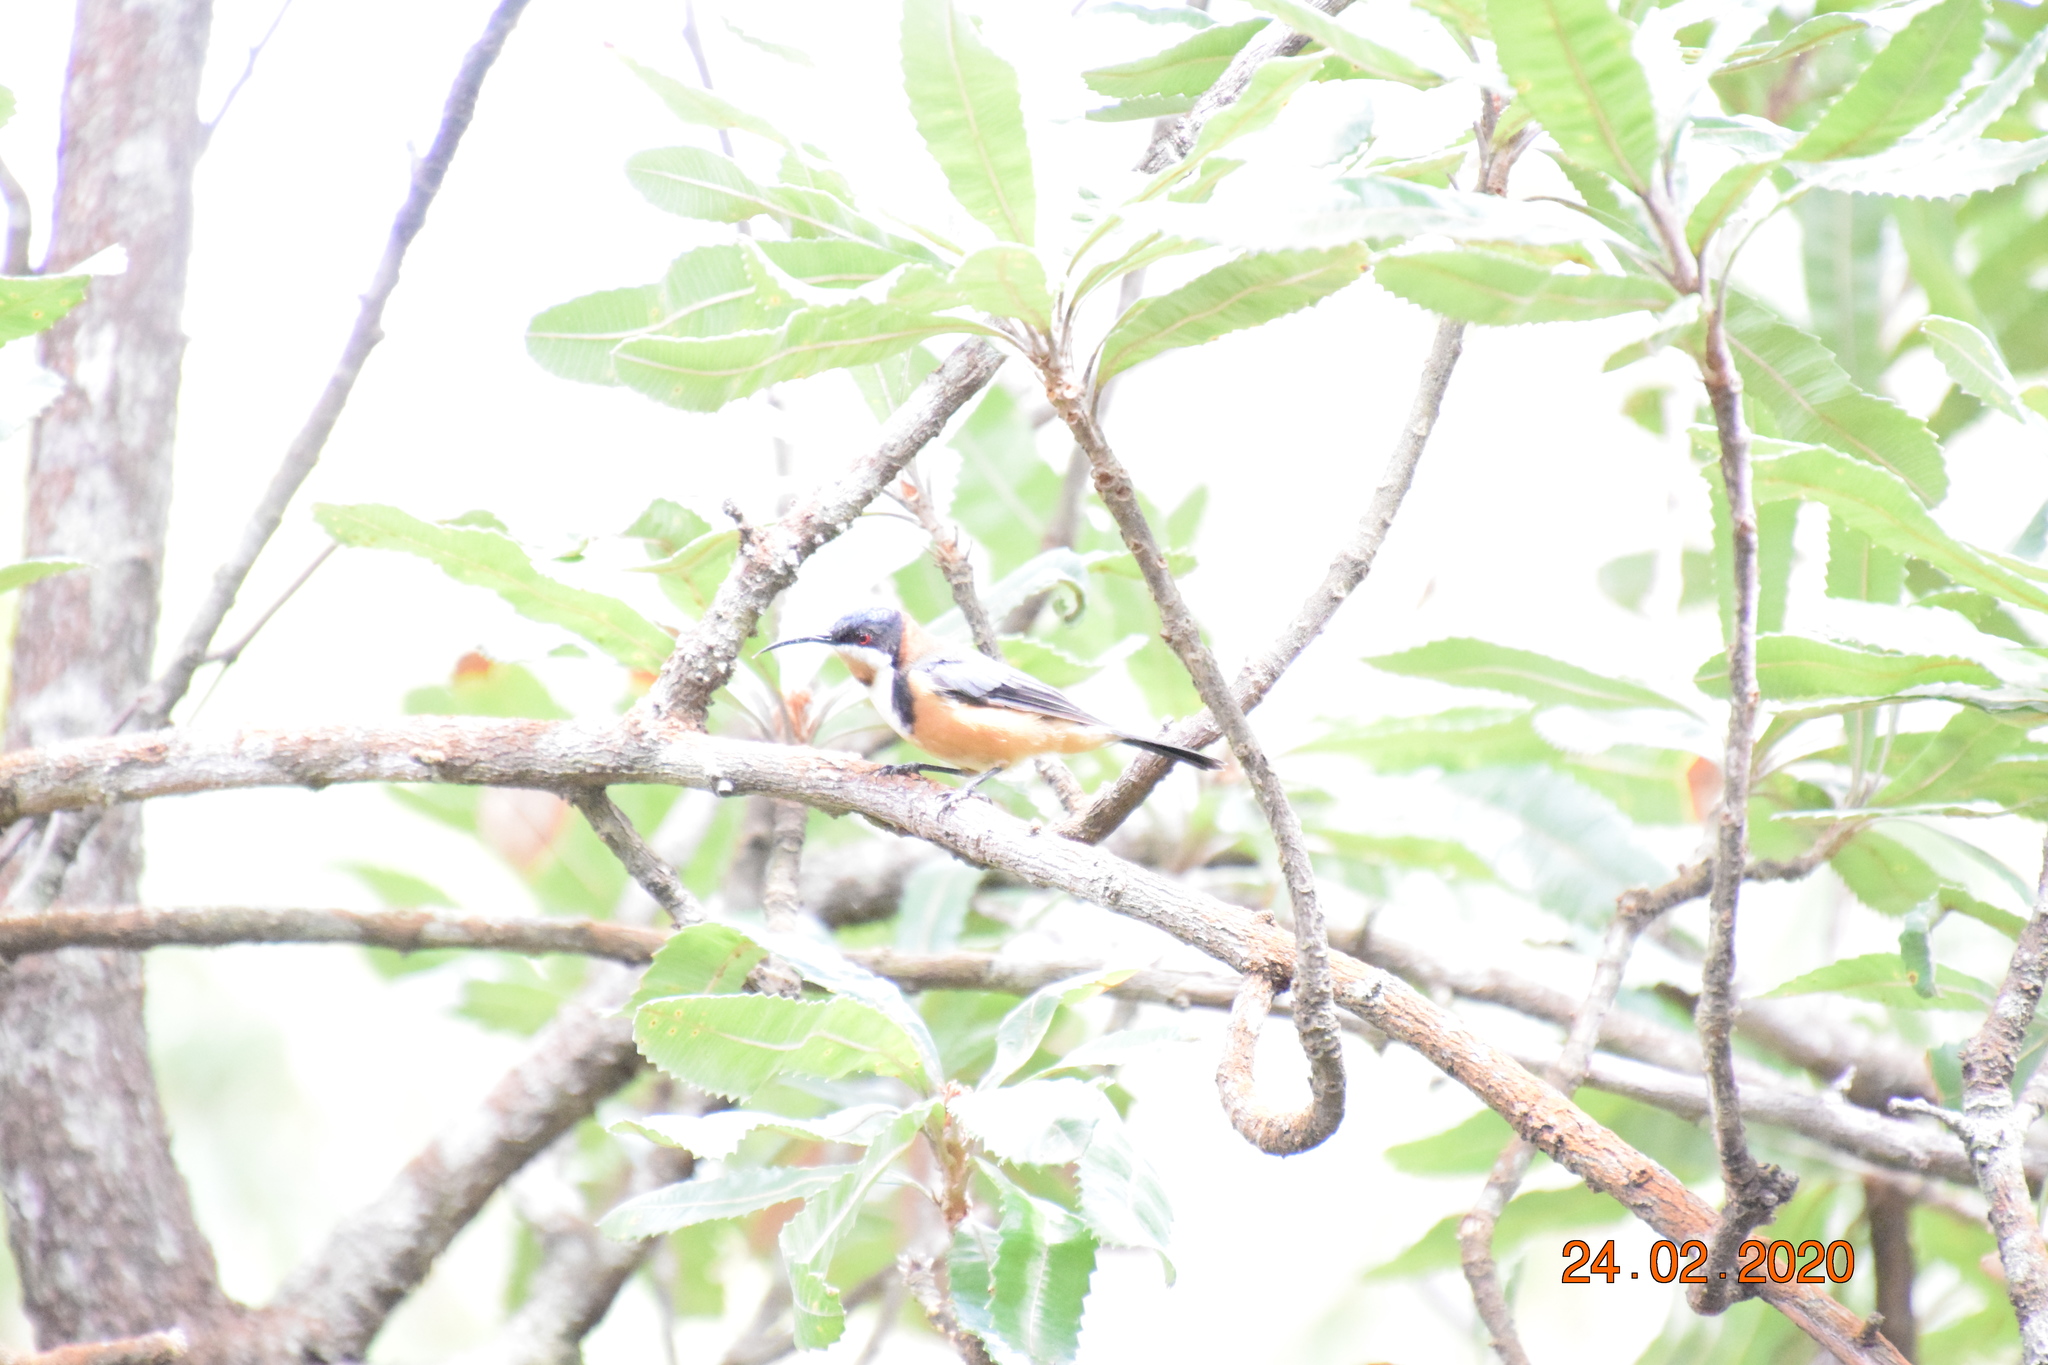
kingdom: Animalia
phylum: Chordata
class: Aves
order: Passeriformes
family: Meliphagidae
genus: Acanthorhynchus
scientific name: Acanthorhynchus tenuirostris
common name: Eastern spinebill
